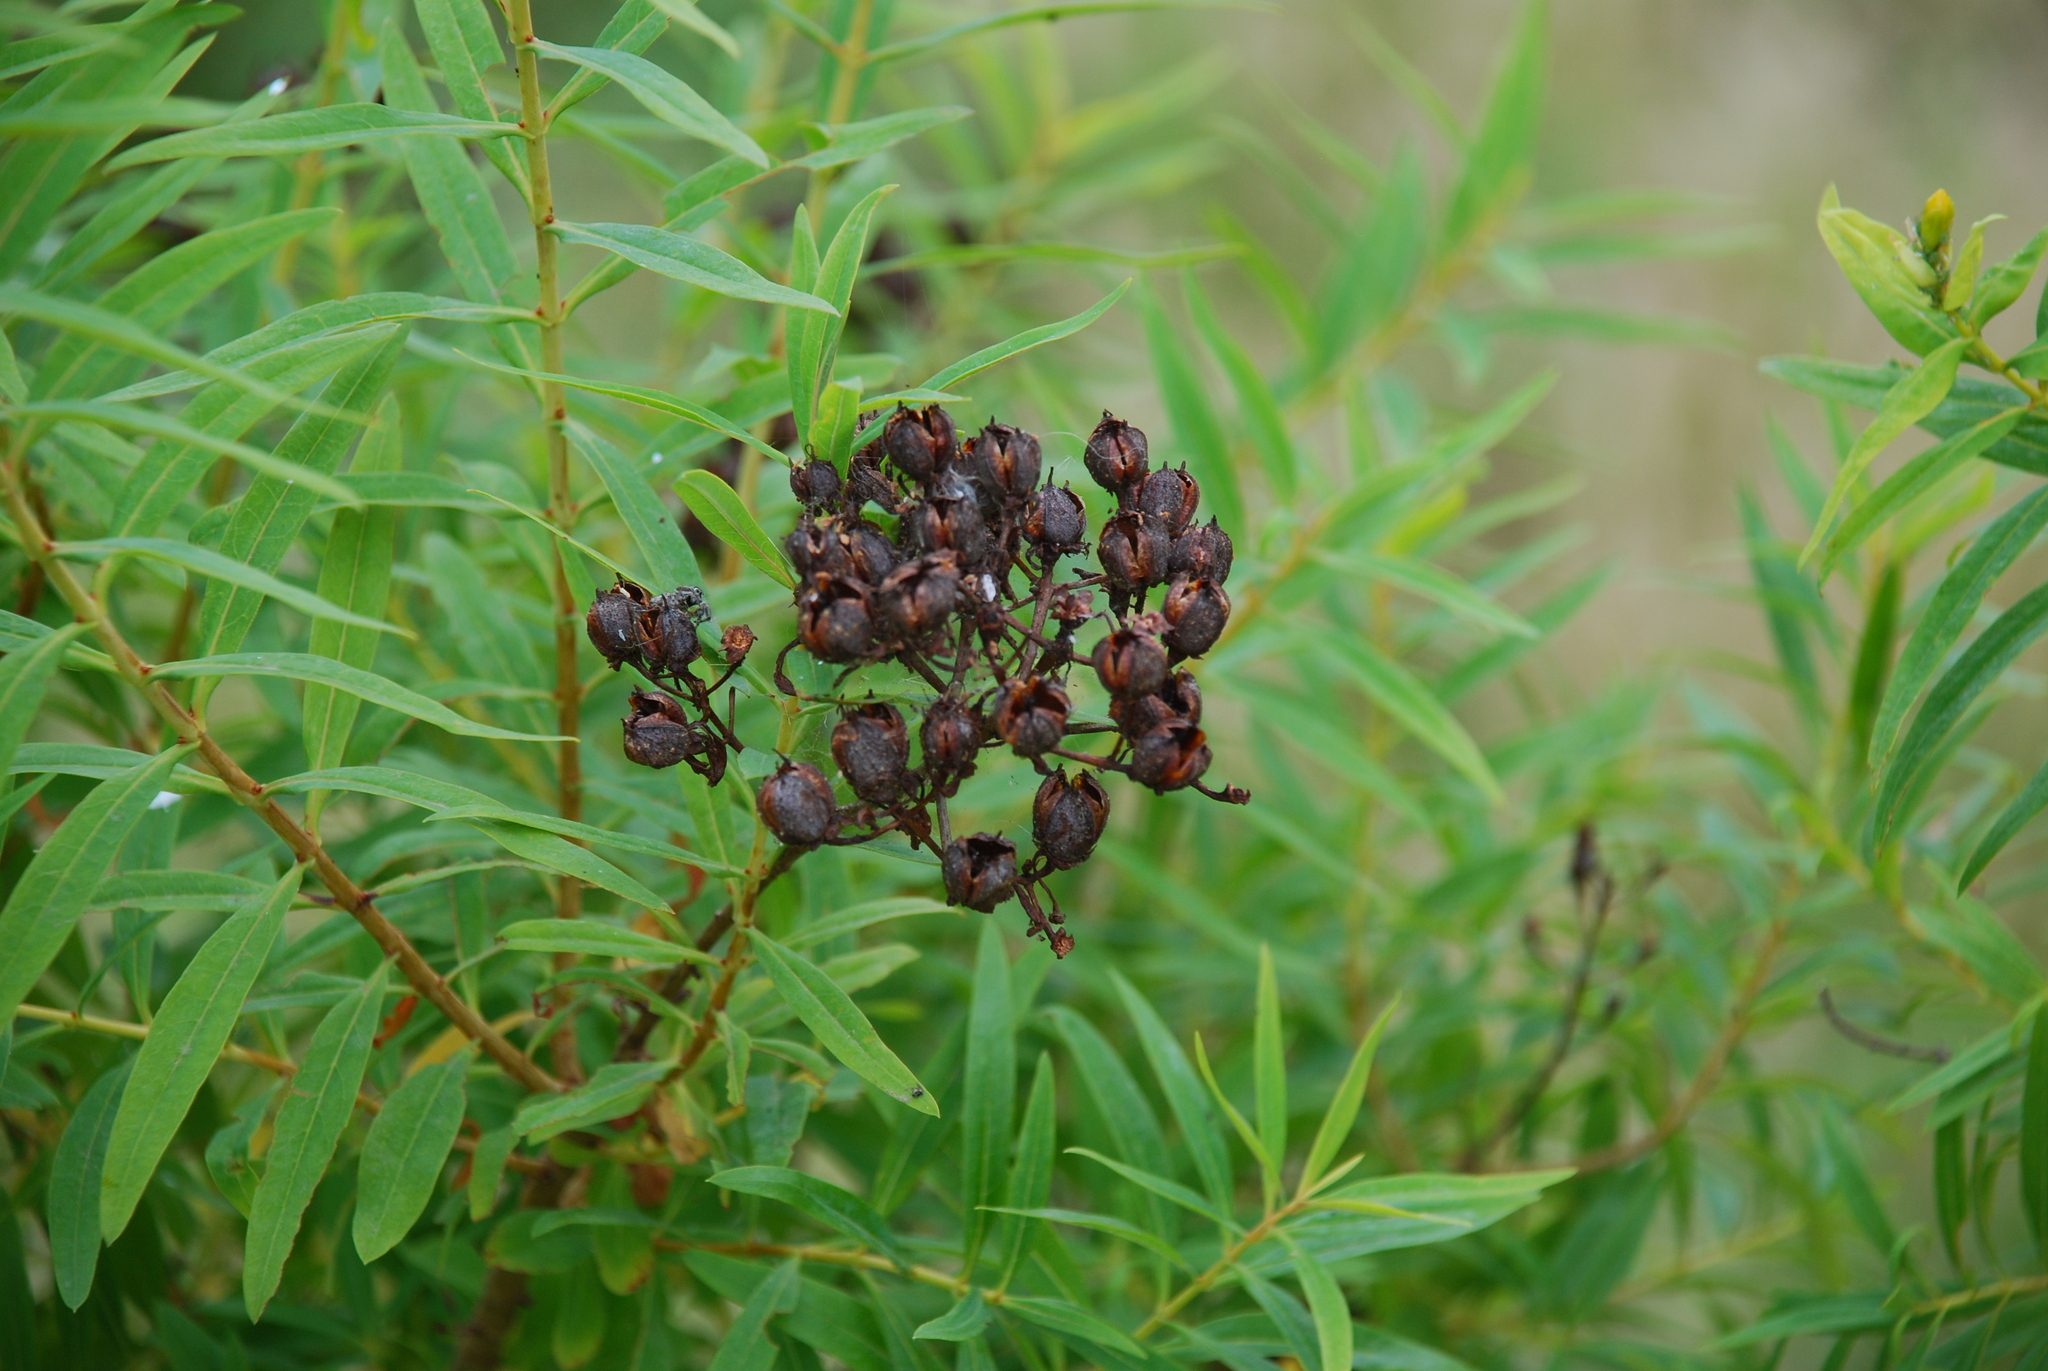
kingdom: Plantae
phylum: Tracheophyta
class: Magnoliopsida
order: Malpighiales
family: Hypericaceae
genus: Hypericum
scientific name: Hypericum canariense
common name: Canary island st. johnswort
